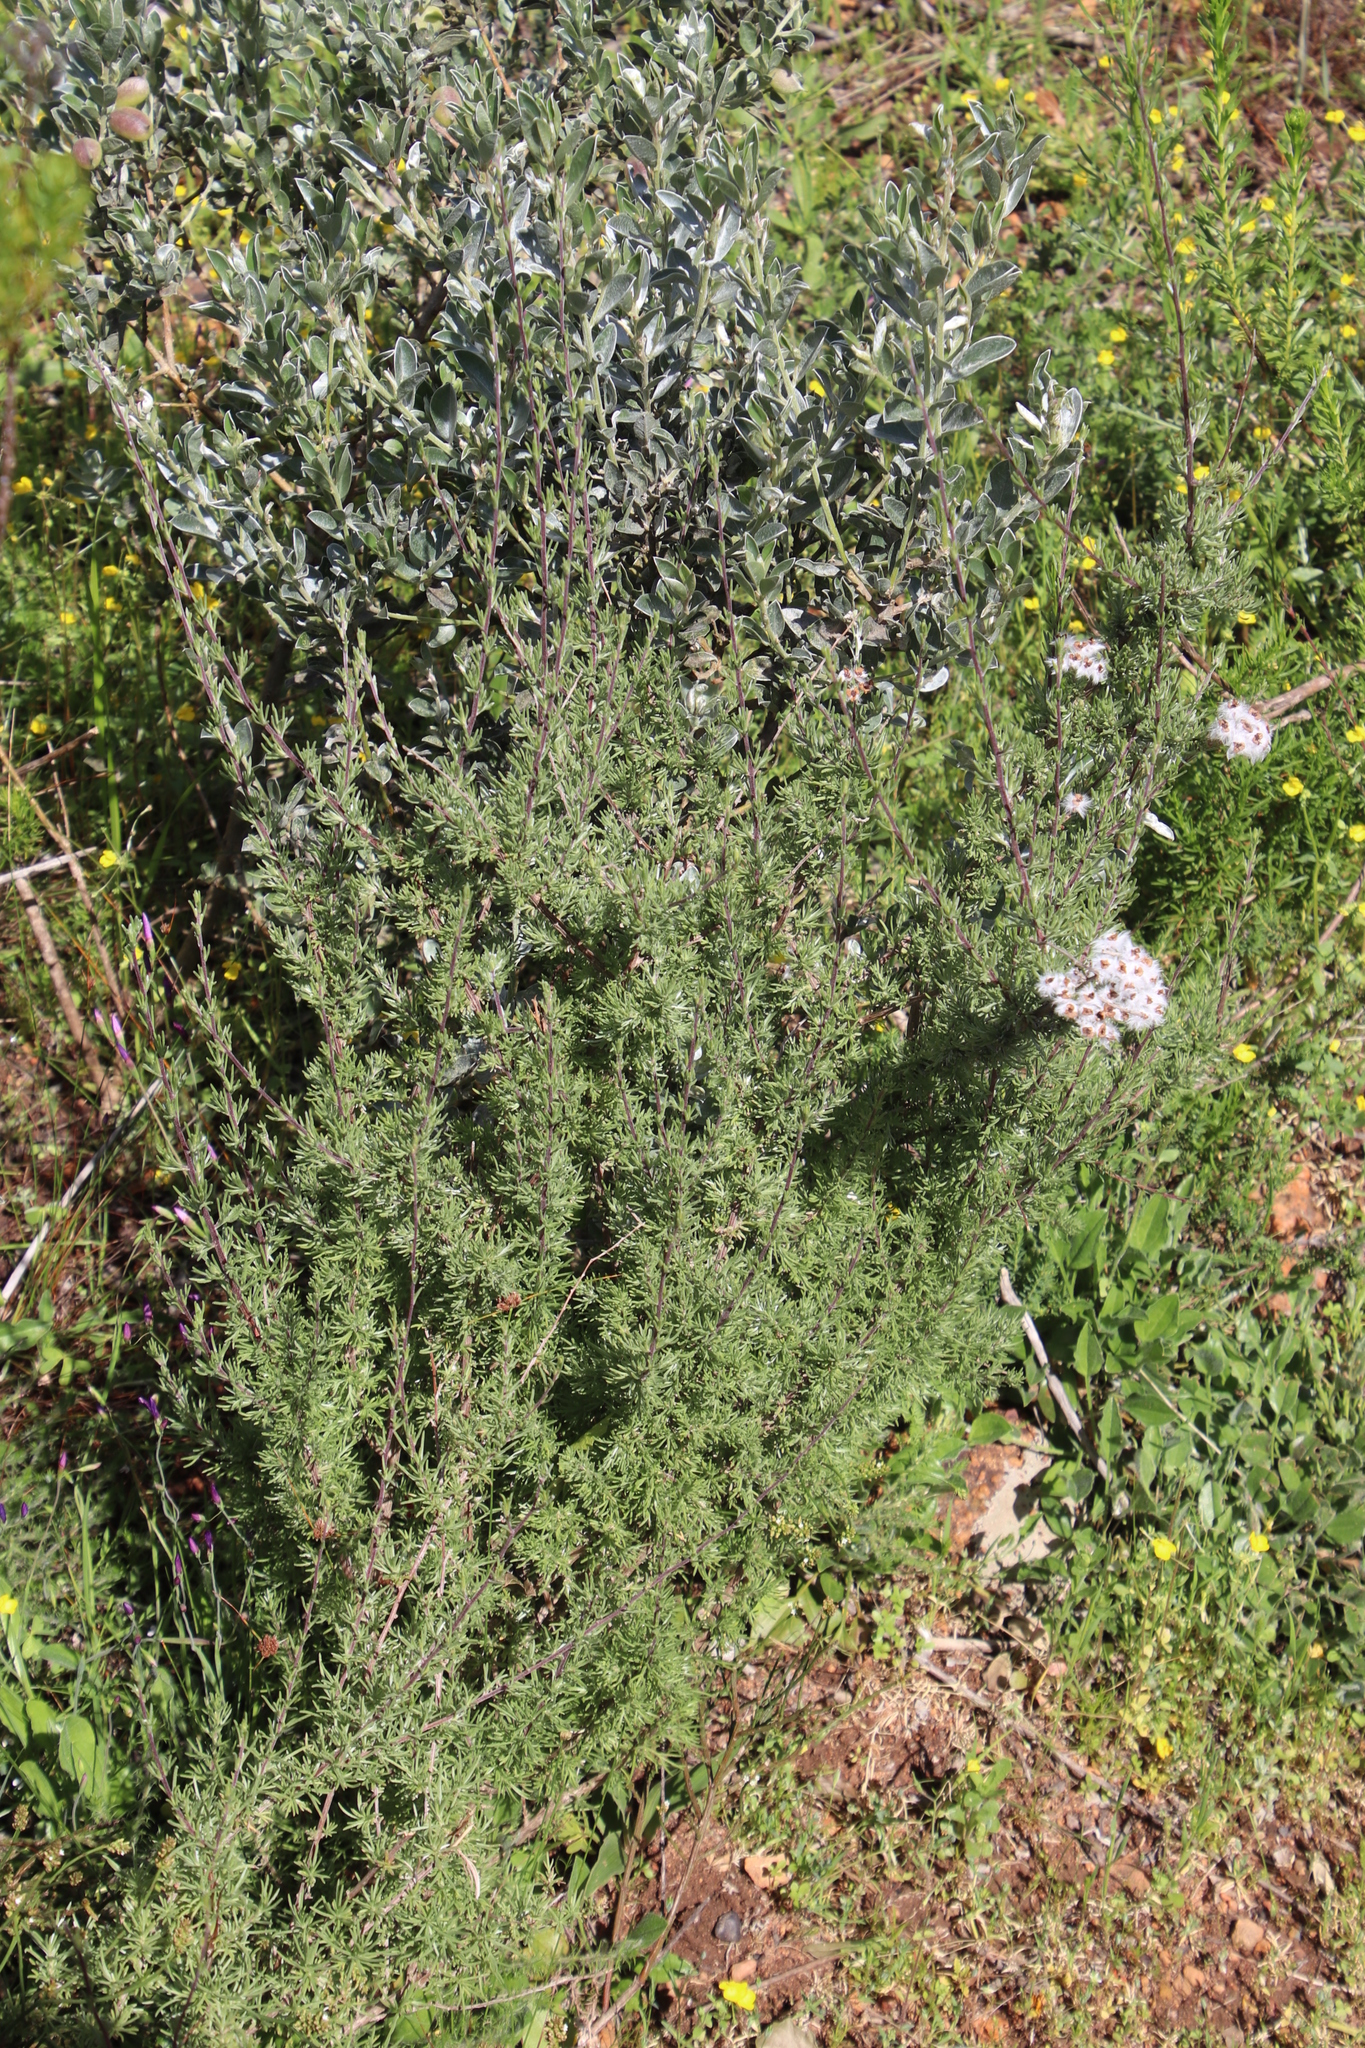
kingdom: Plantae
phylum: Tracheophyta
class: Magnoliopsida
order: Asterales
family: Asteraceae
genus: Eriocephalus
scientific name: Eriocephalus africanus
